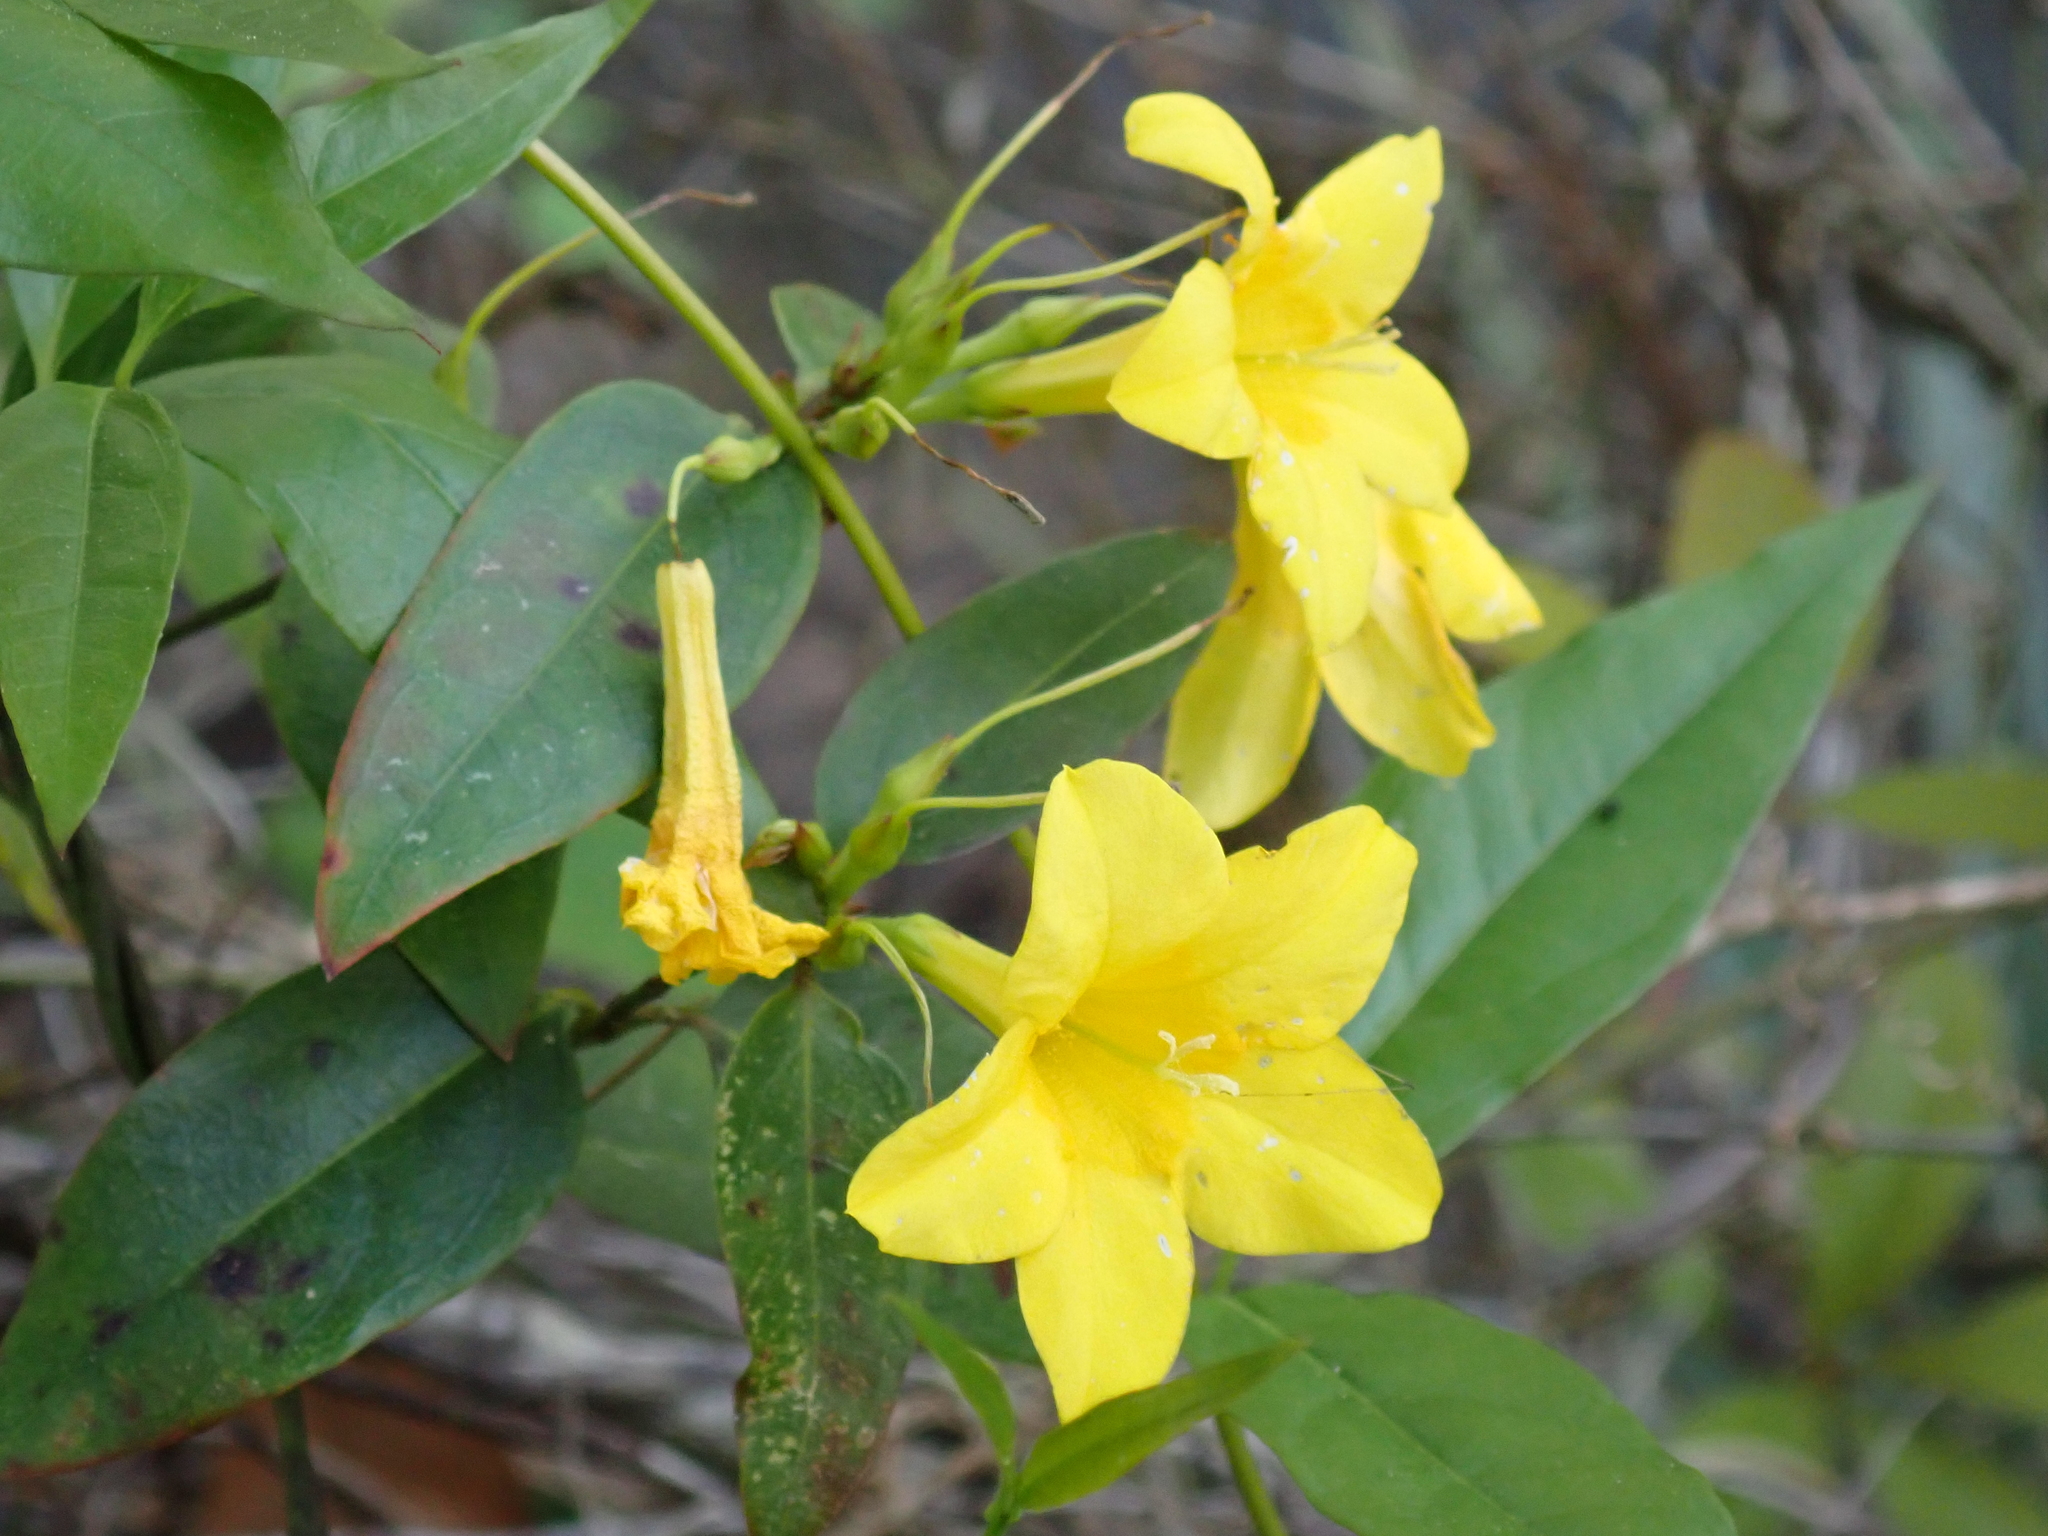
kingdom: Plantae
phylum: Tracheophyta
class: Magnoliopsida
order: Gentianales
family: Gelsemiaceae
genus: Gelsemium
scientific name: Gelsemium rankinii
